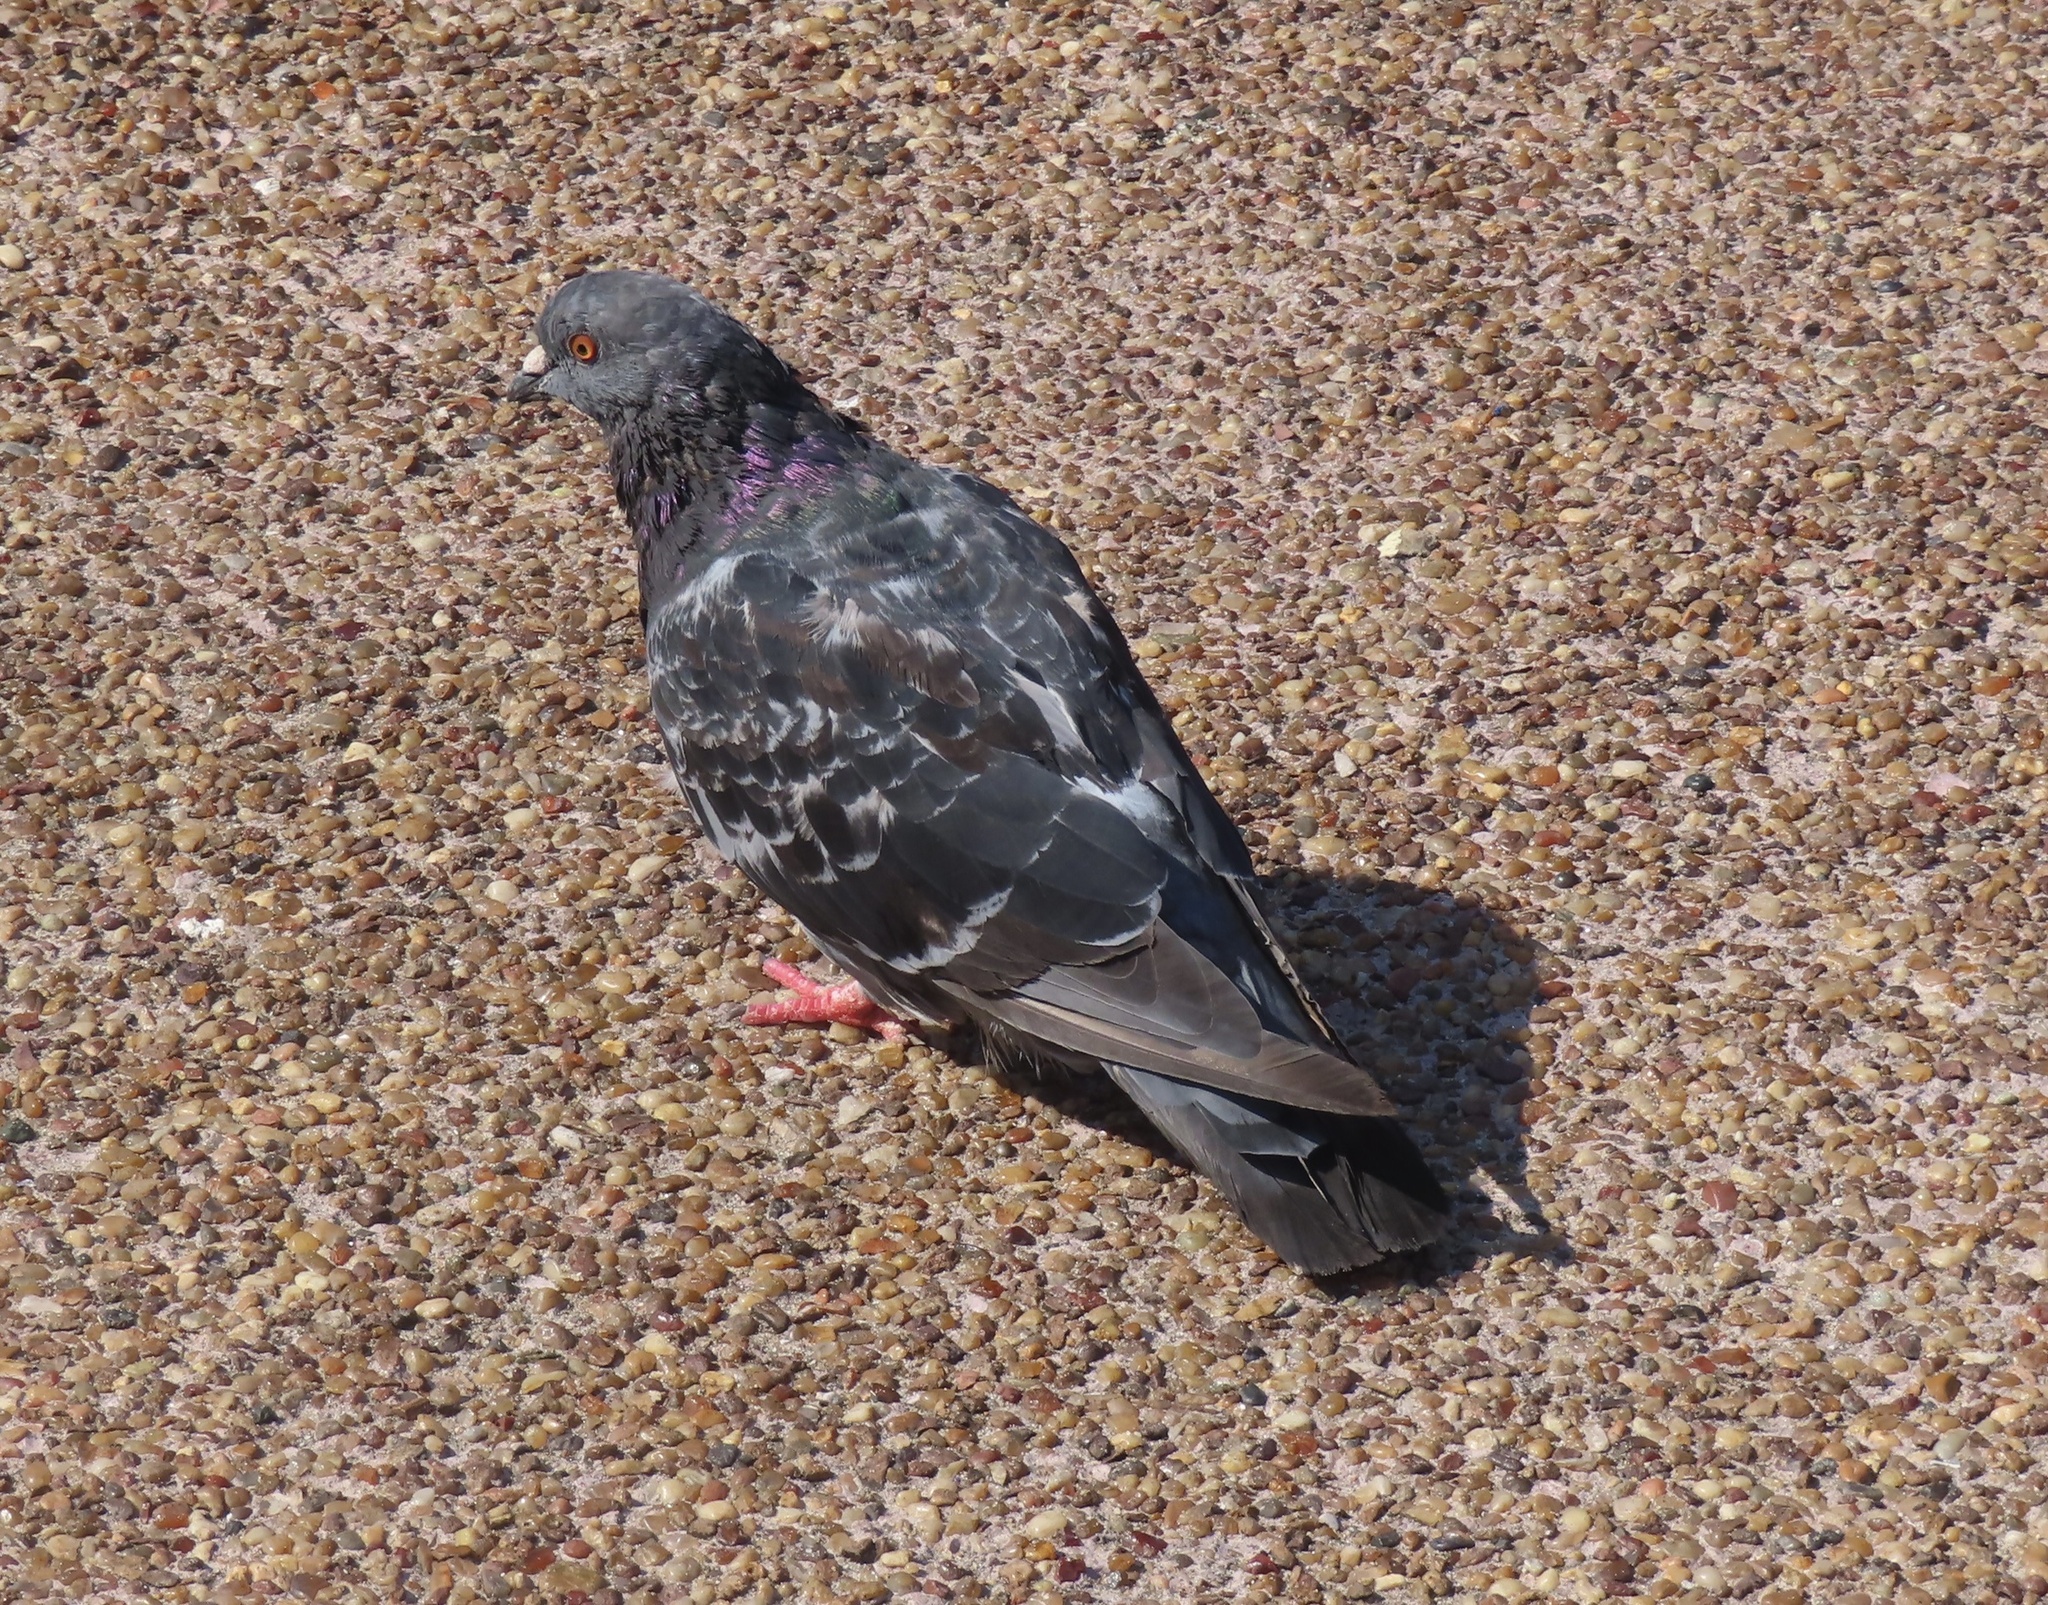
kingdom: Animalia
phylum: Chordata
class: Aves
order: Columbiformes
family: Columbidae
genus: Columba
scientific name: Columba livia
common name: Rock pigeon
